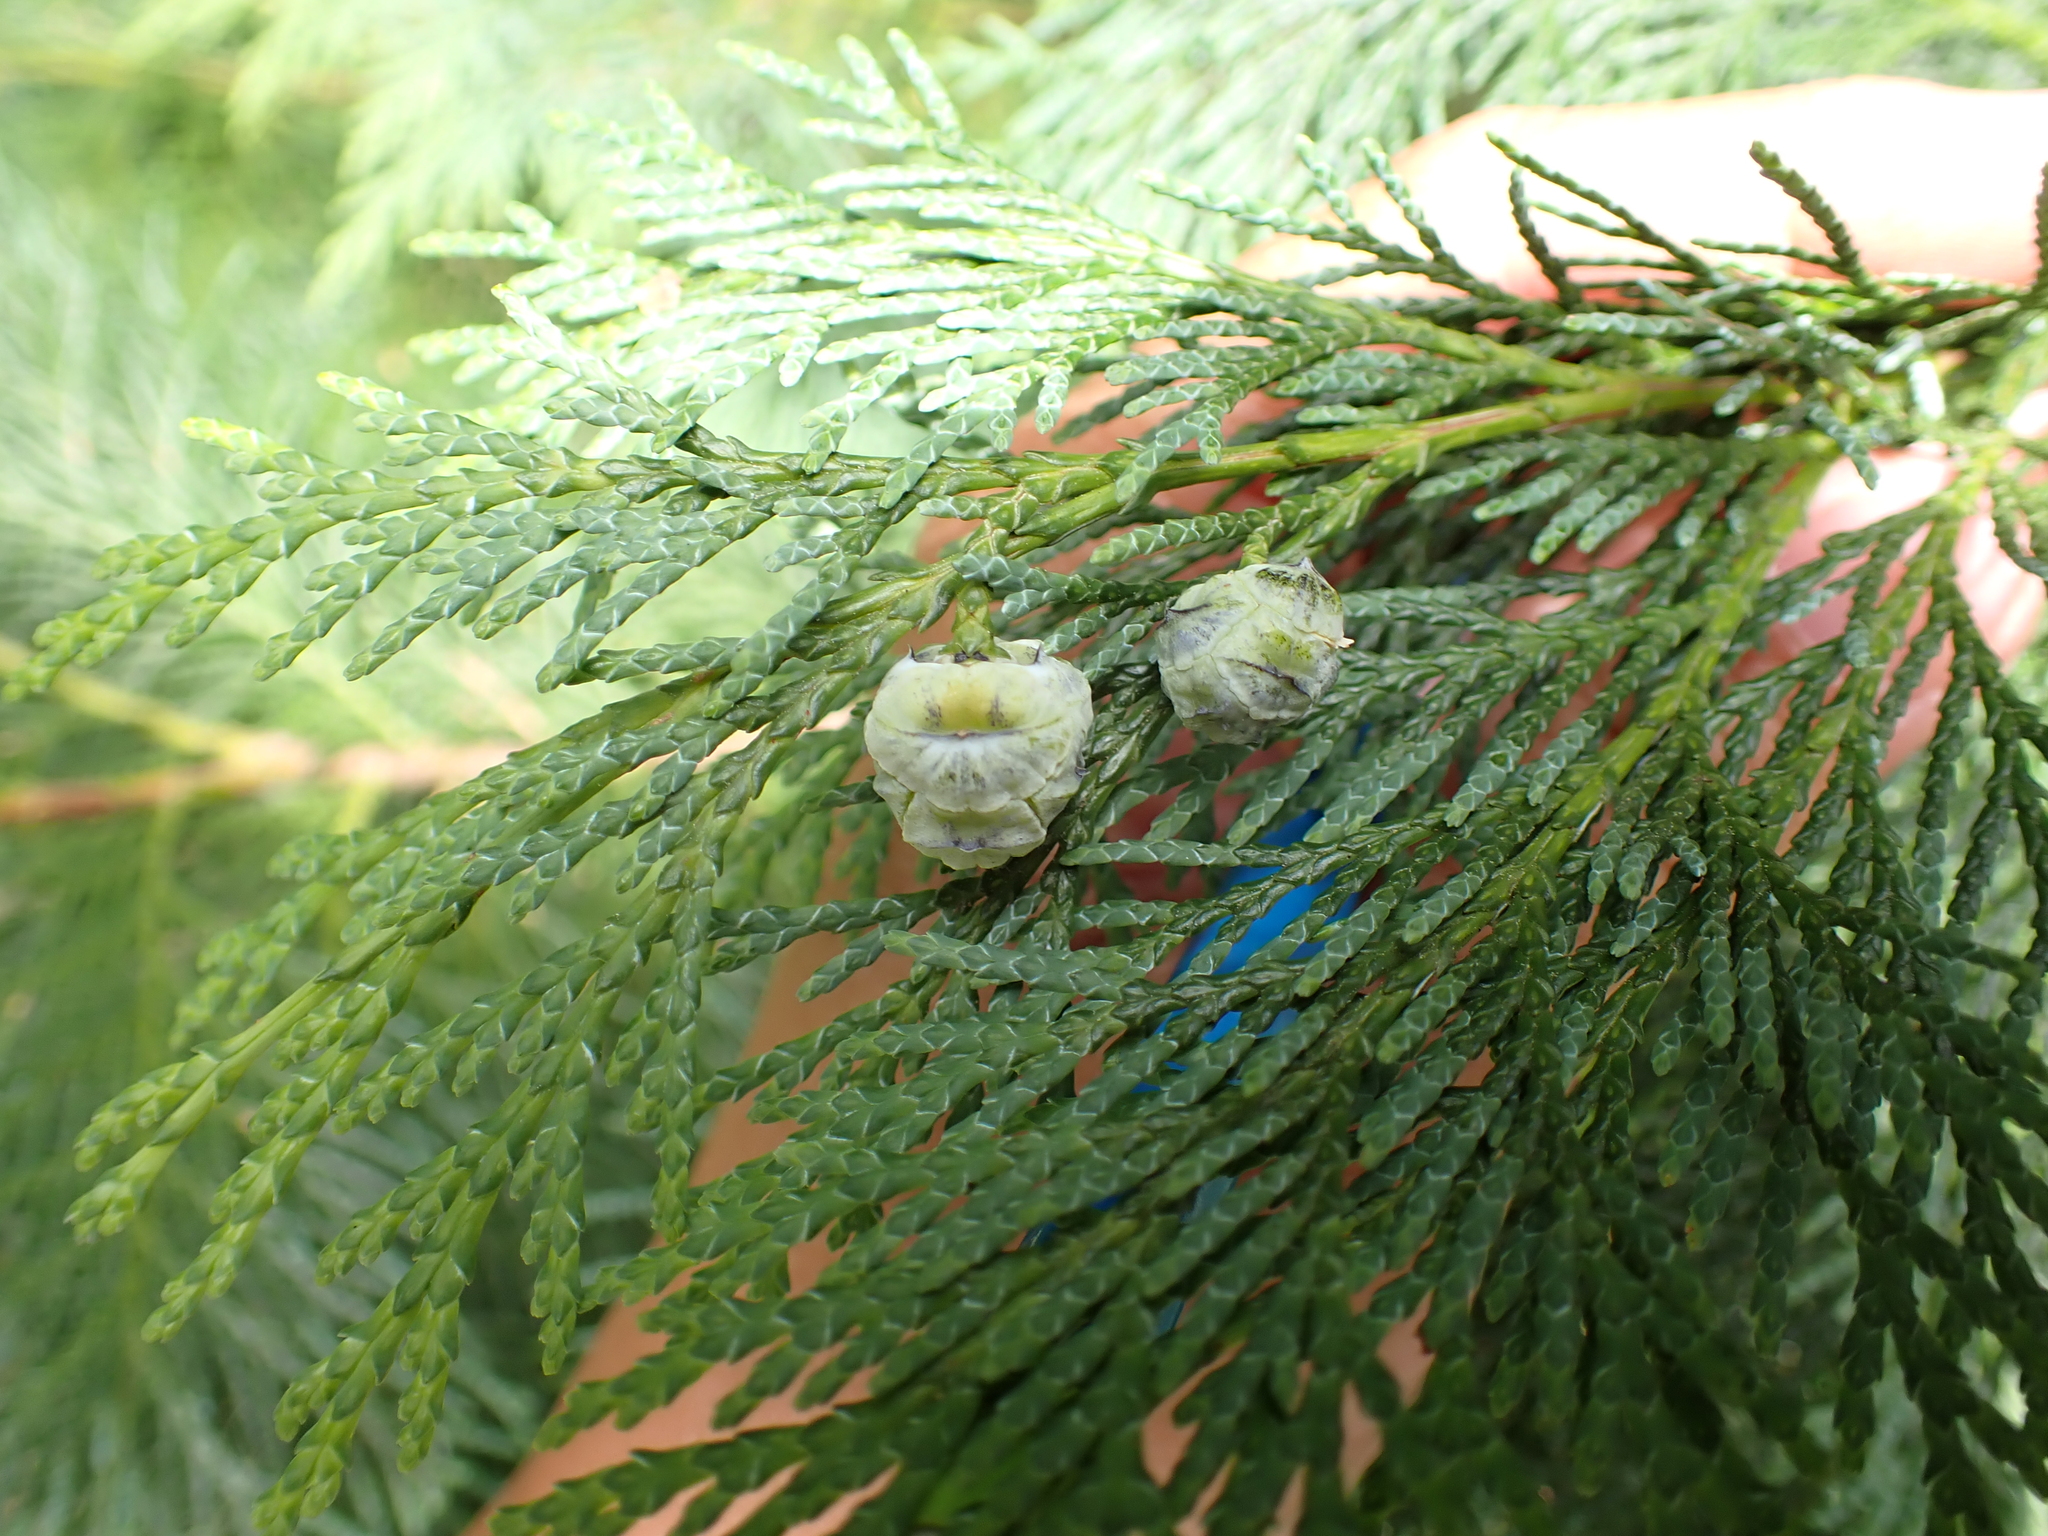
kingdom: Plantae
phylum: Tracheophyta
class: Pinopsida
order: Pinales
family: Cupressaceae
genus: Chamaecyparis
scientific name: Chamaecyparis lawsoniana
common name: Lawson's cypress
